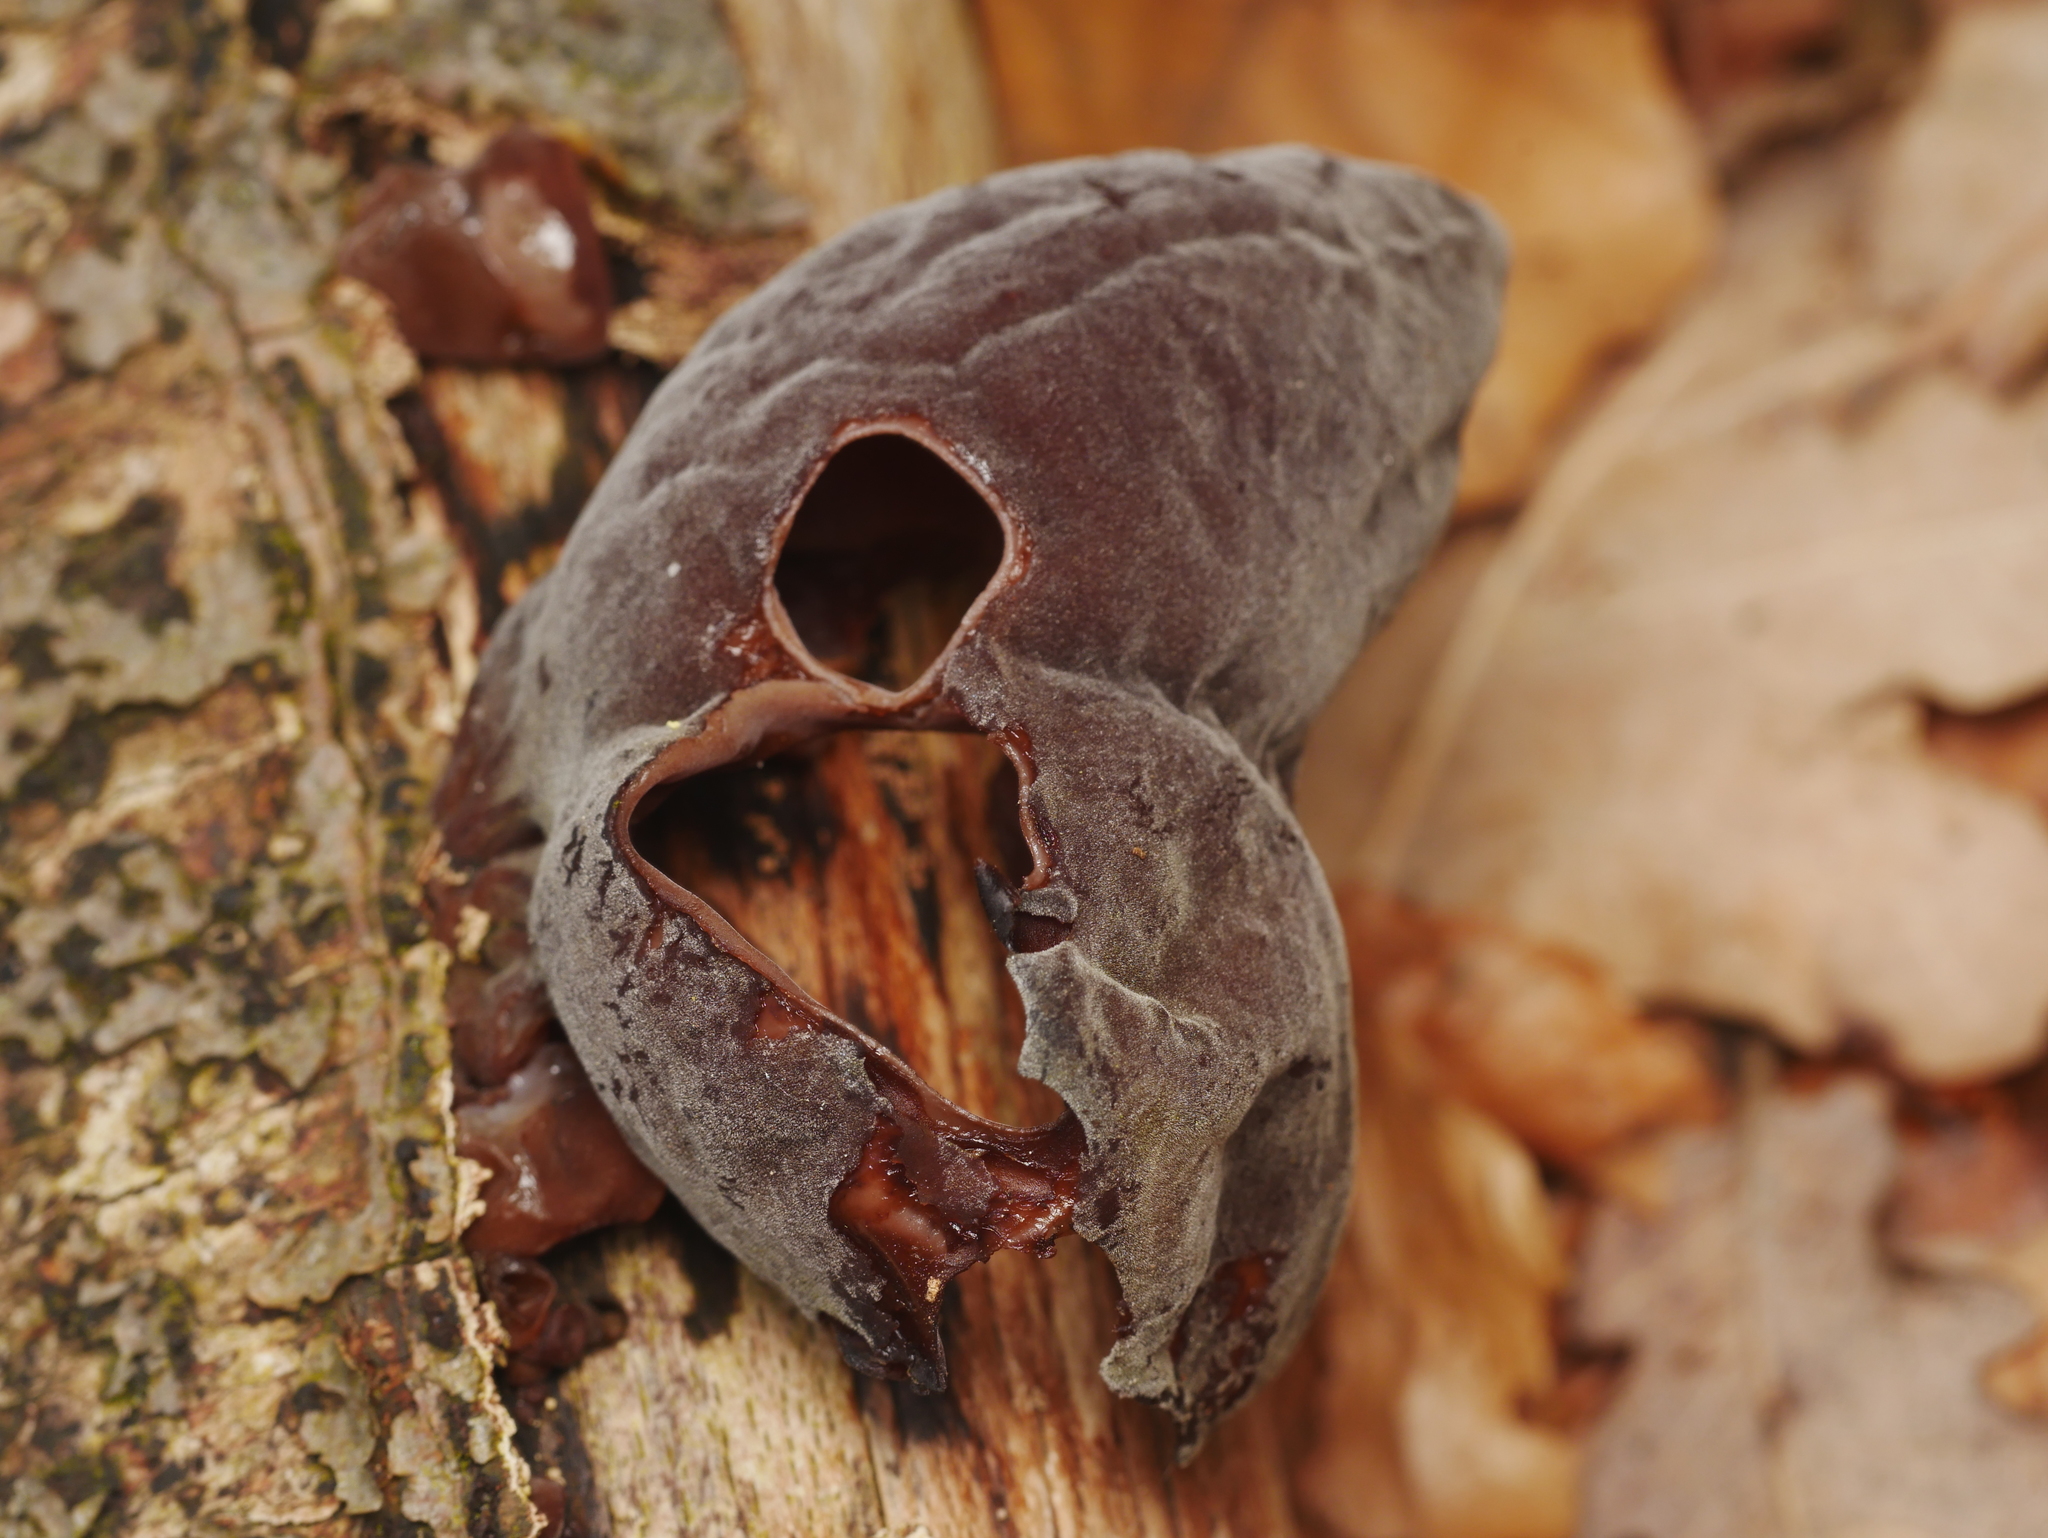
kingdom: Fungi
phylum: Basidiomycota
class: Agaricomycetes
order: Auriculariales
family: Auriculariaceae
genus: Auricularia
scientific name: Auricularia auricula-judae
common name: Jelly ear
